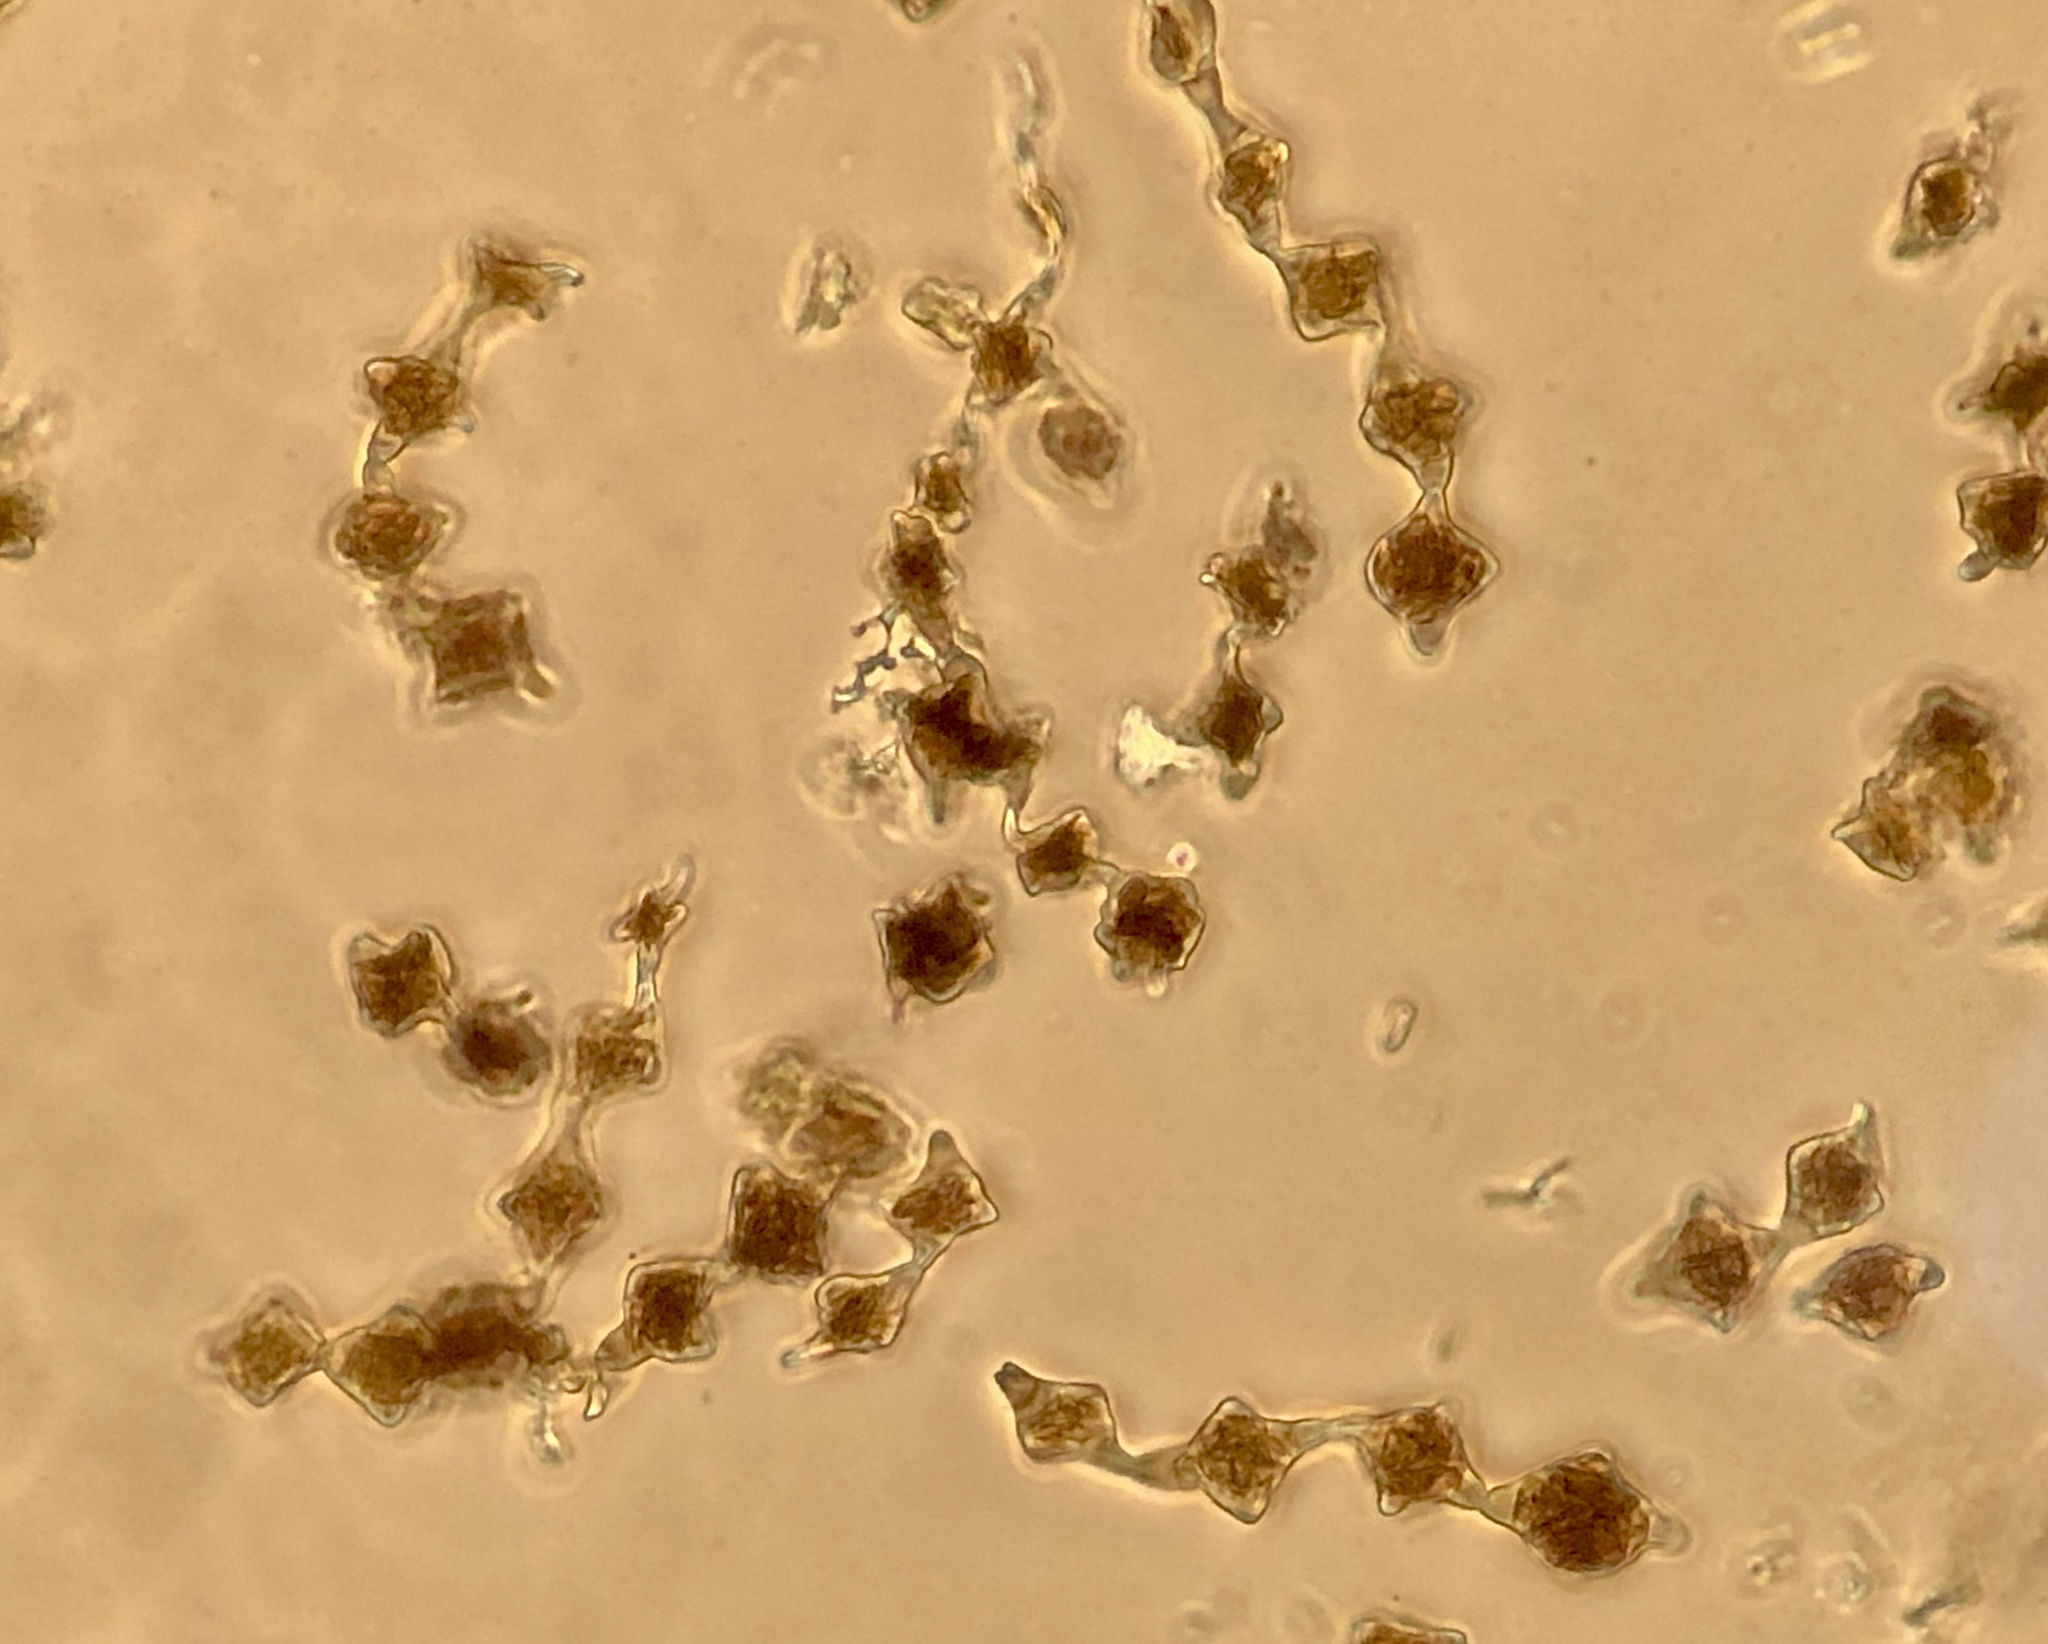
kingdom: Fungi
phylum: Ascomycota
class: Dothideomycetes
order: Pleosporales
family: Melanommataceae
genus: Phragmotrichum
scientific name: Phragmotrichum
